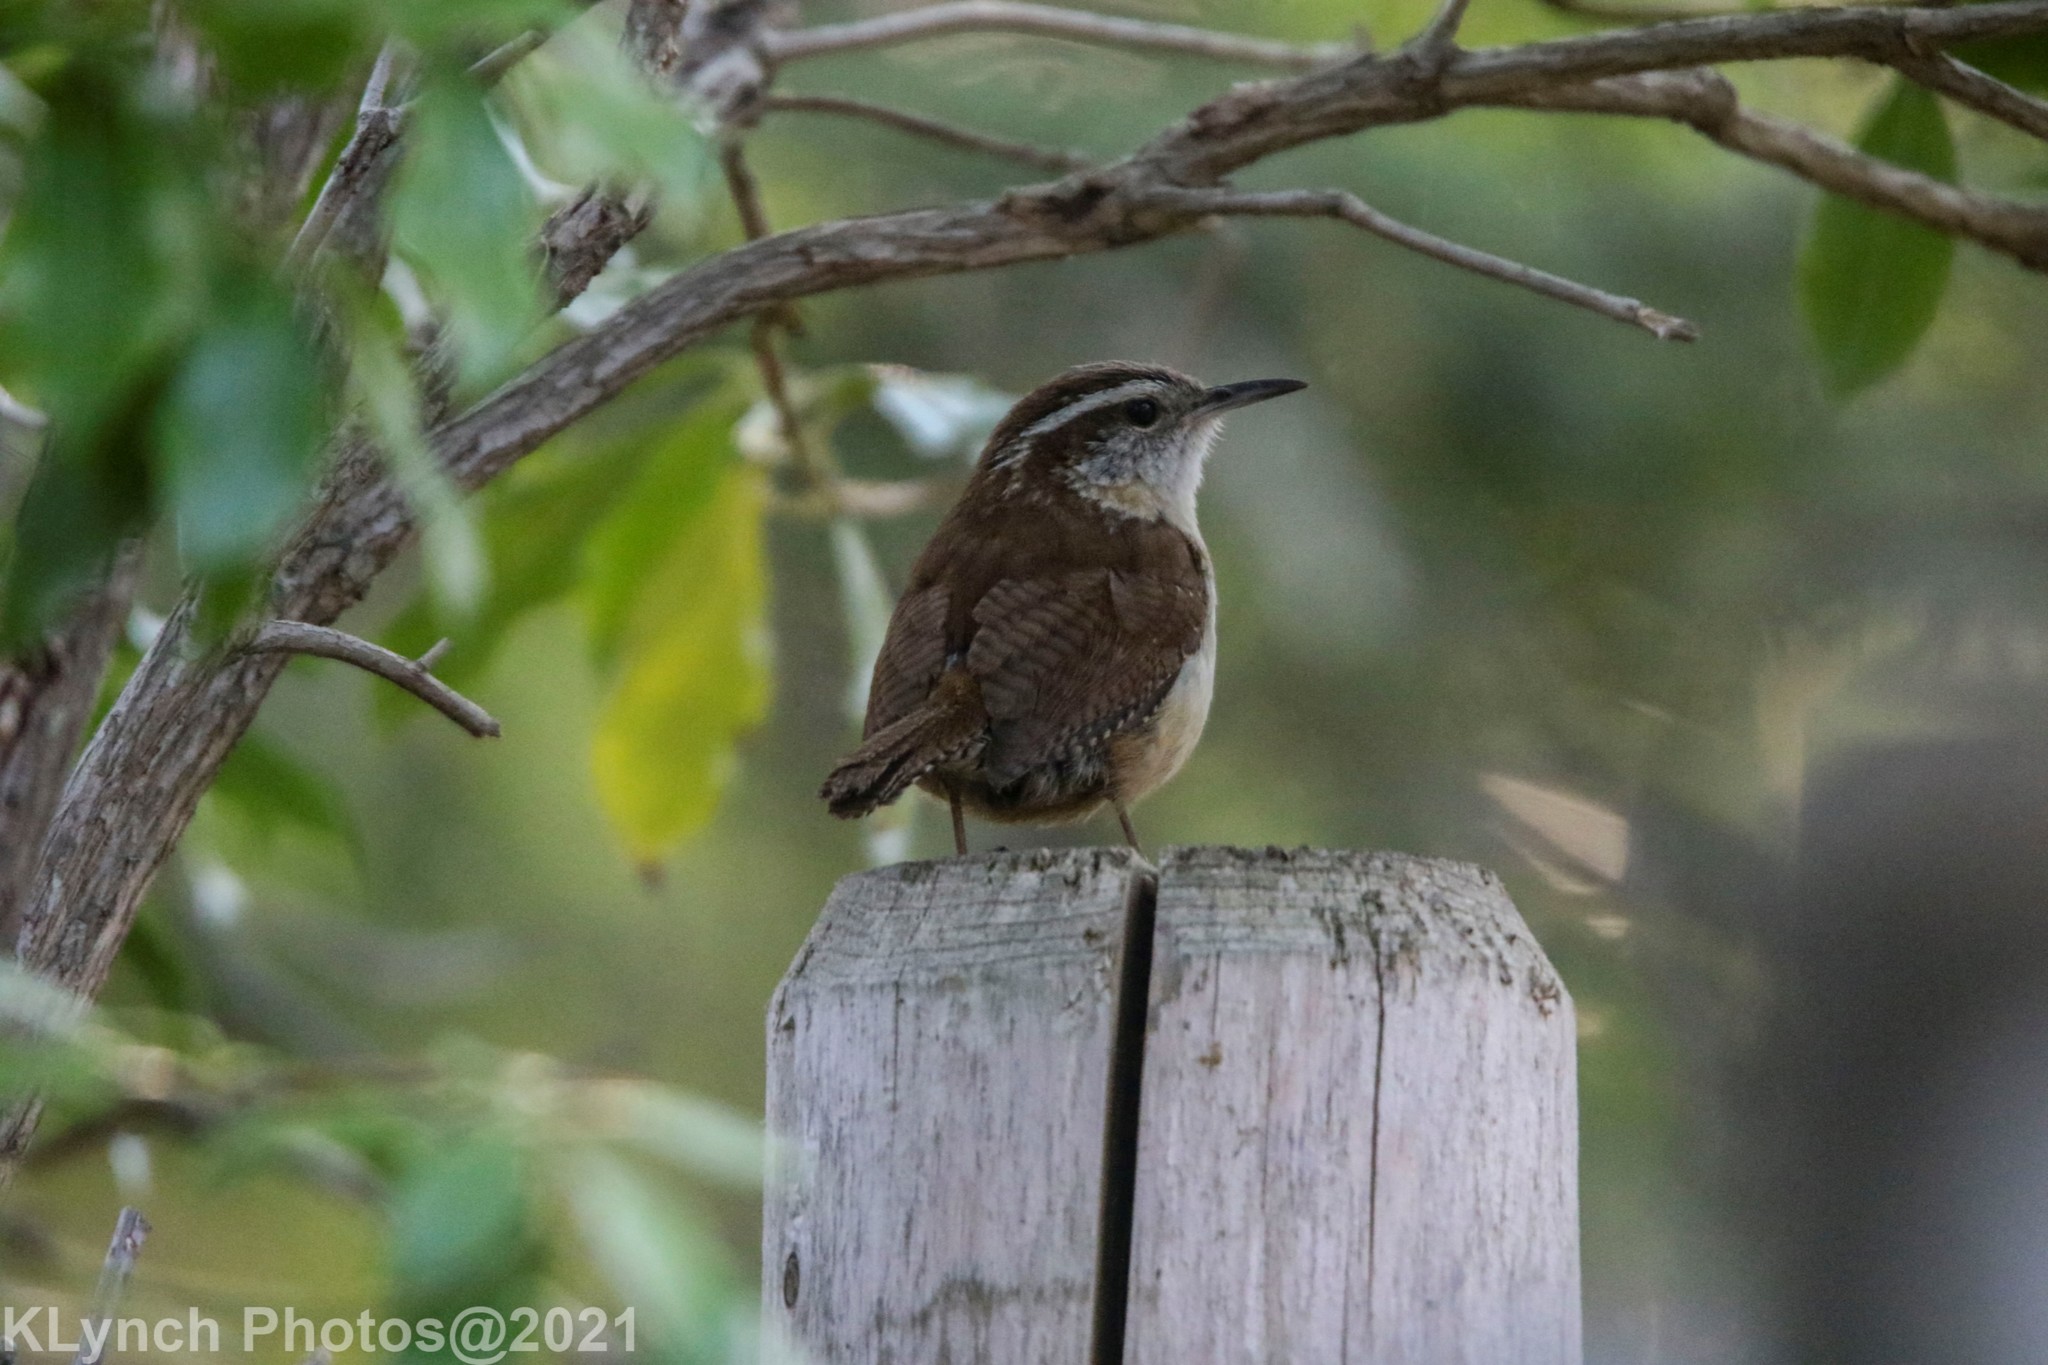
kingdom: Animalia
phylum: Chordata
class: Aves
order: Passeriformes
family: Troglodytidae
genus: Thryothorus
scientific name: Thryothorus ludovicianus
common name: Carolina wren
